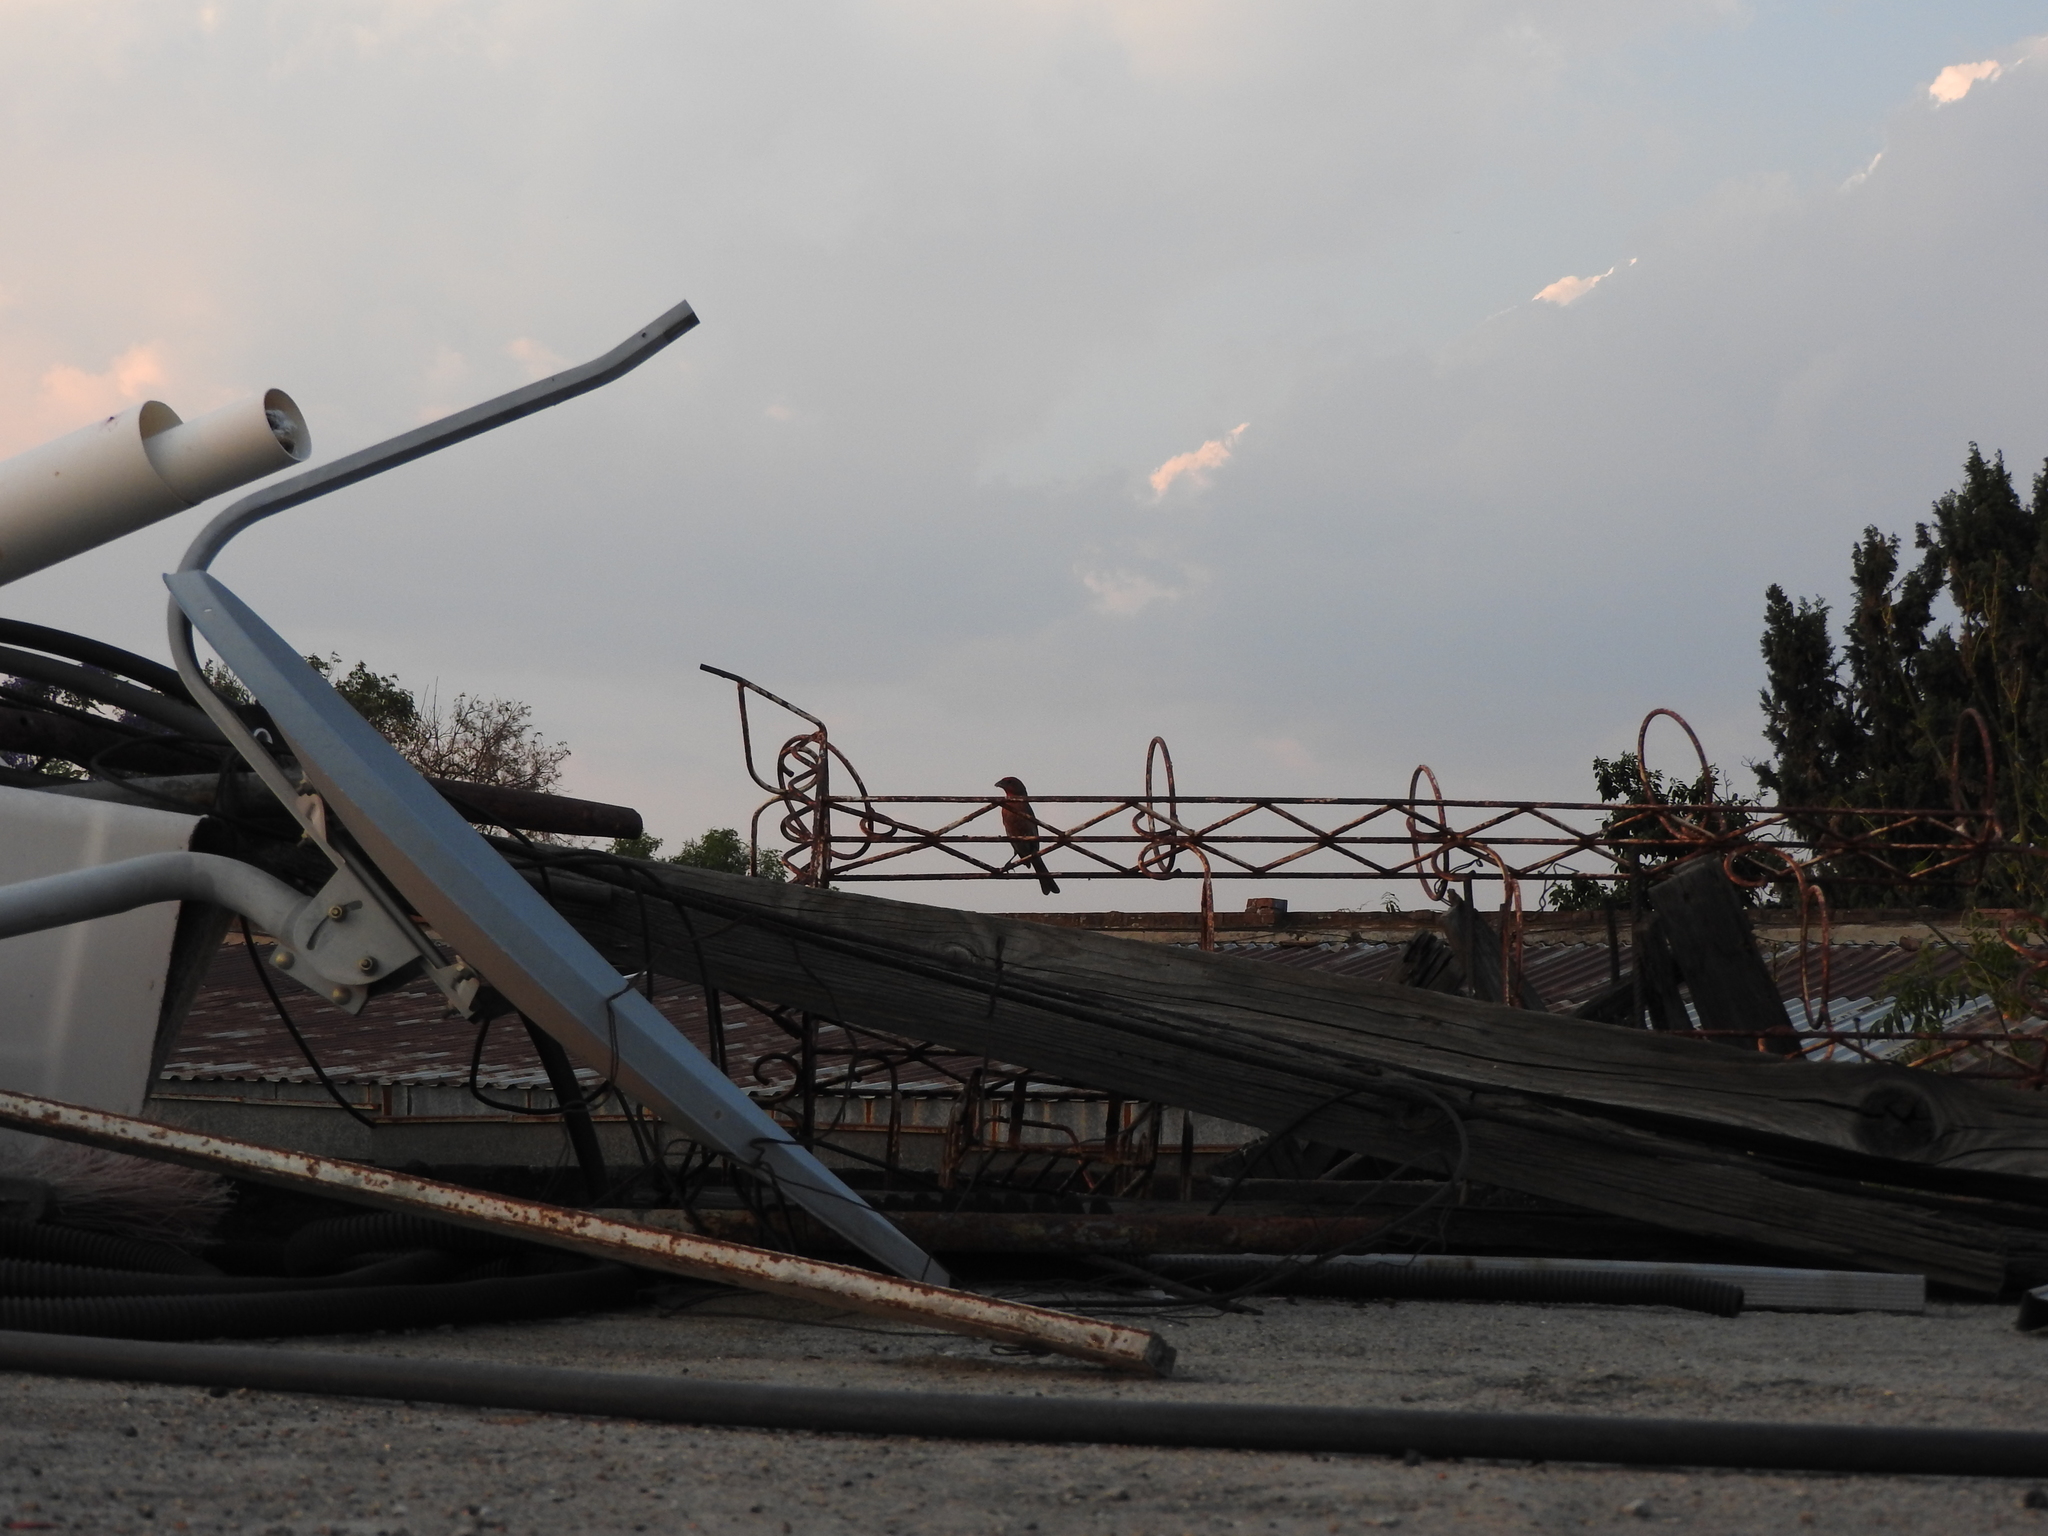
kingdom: Animalia
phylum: Chordata
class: Aves
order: Passeriformes
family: Fringillidae
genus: Haemorhous
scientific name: Haemorhous mexicanus
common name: House finch
